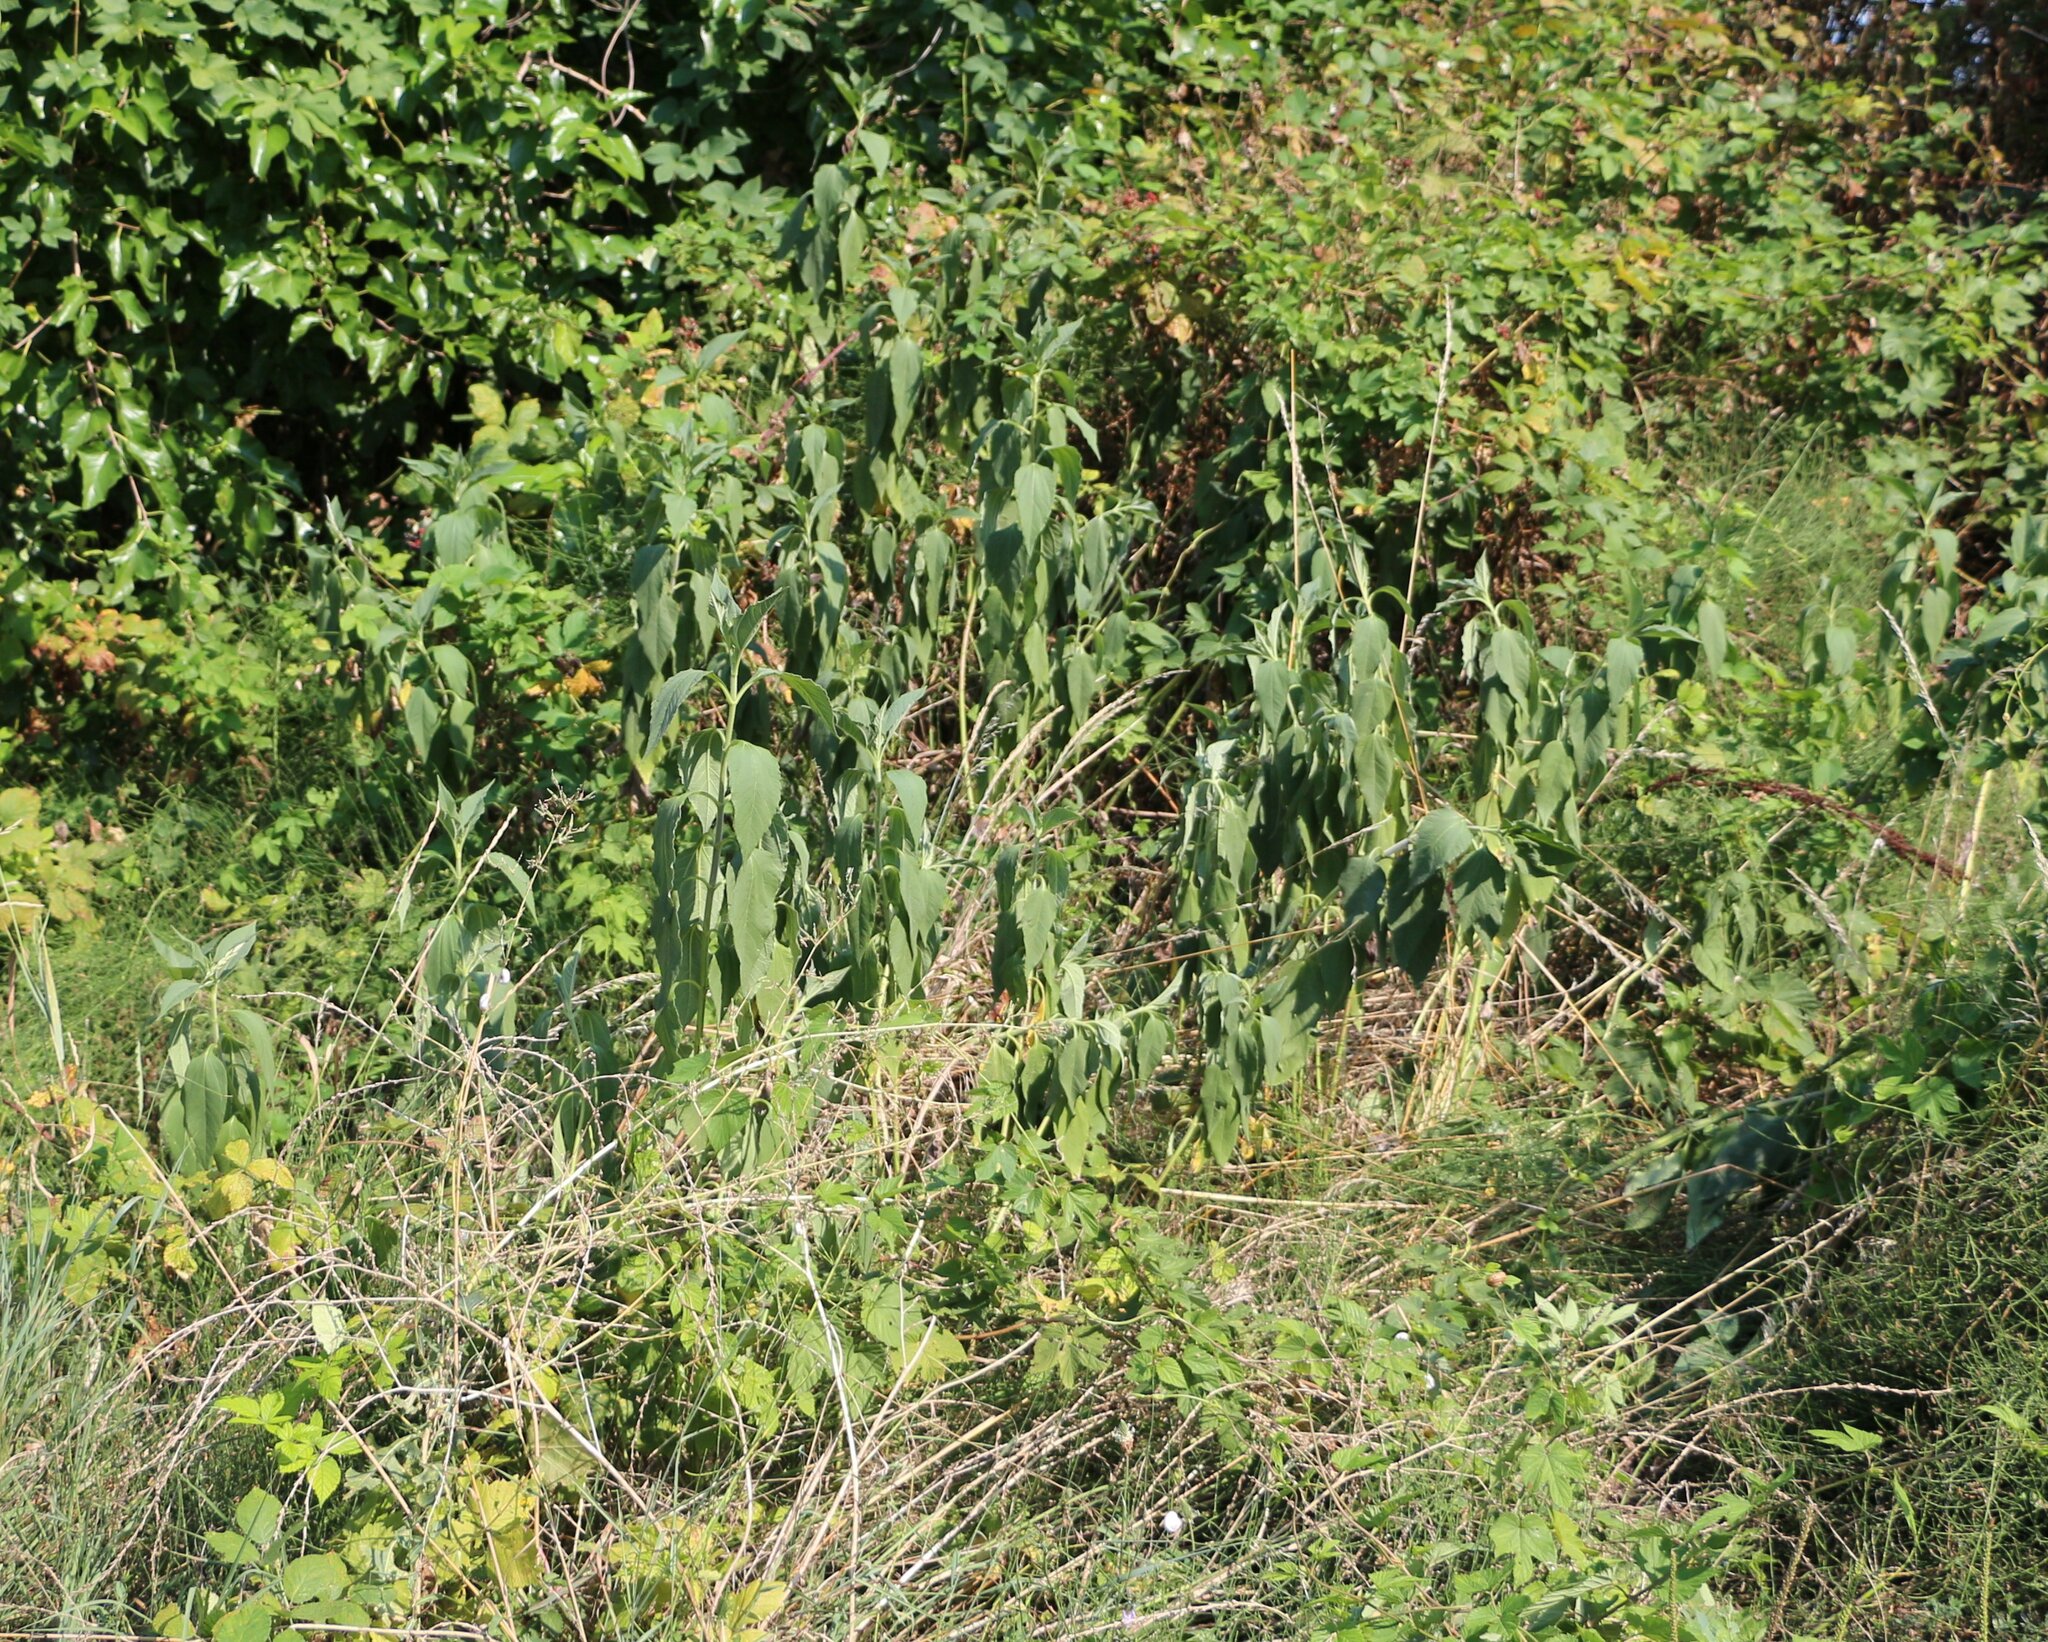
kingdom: Plantae
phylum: Tracheophyta
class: Magnoliopsida
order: Asterales
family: Asteraceae
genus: Helianthus
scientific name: Helianthus tuberosus
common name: Jerusalem artichoke
